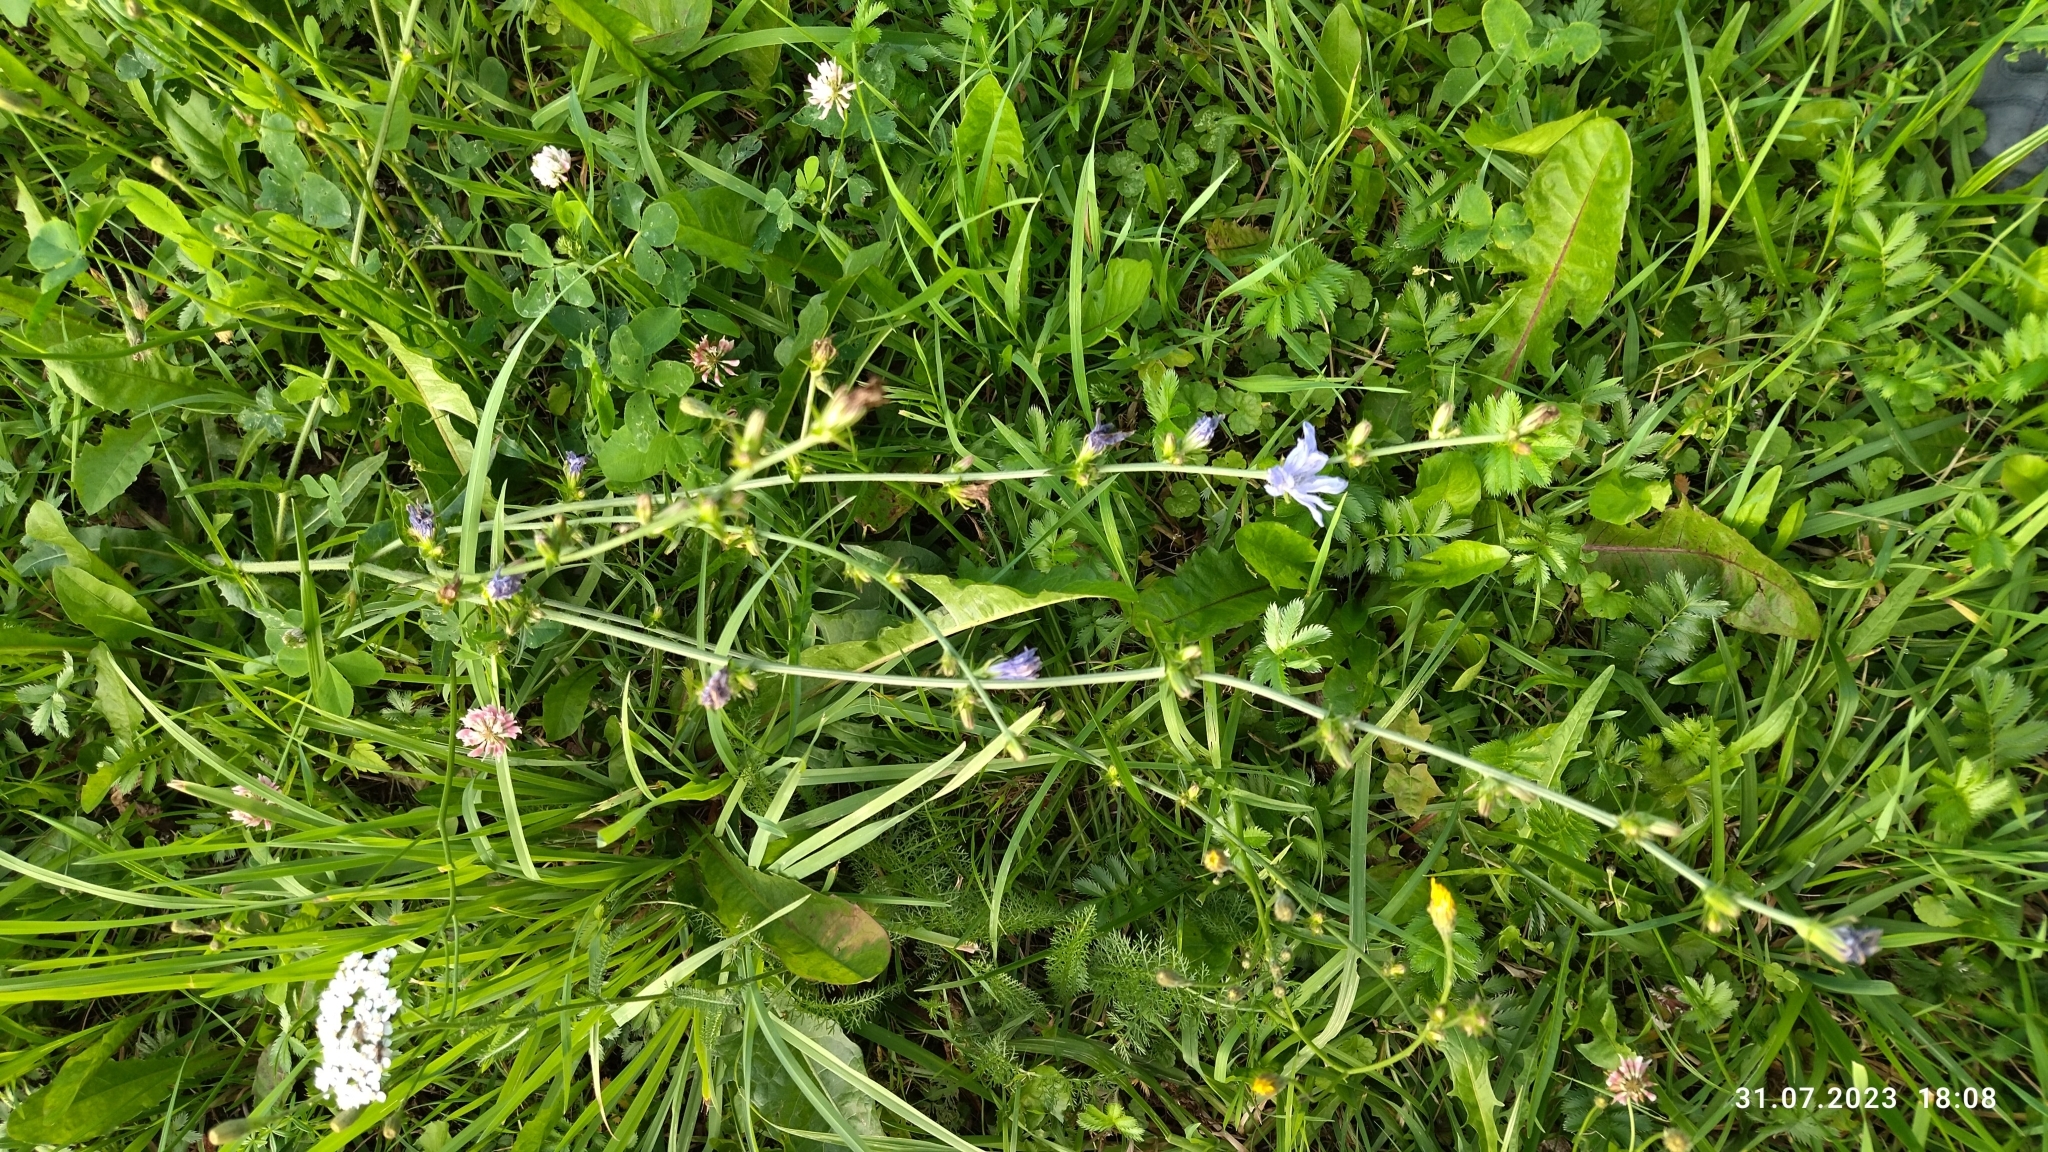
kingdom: Plantae
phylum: Tracheophyta
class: Magnoliopsida
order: Asterales
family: Asteraceae
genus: Cichorium
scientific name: Cichorium intybus
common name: Chicory
